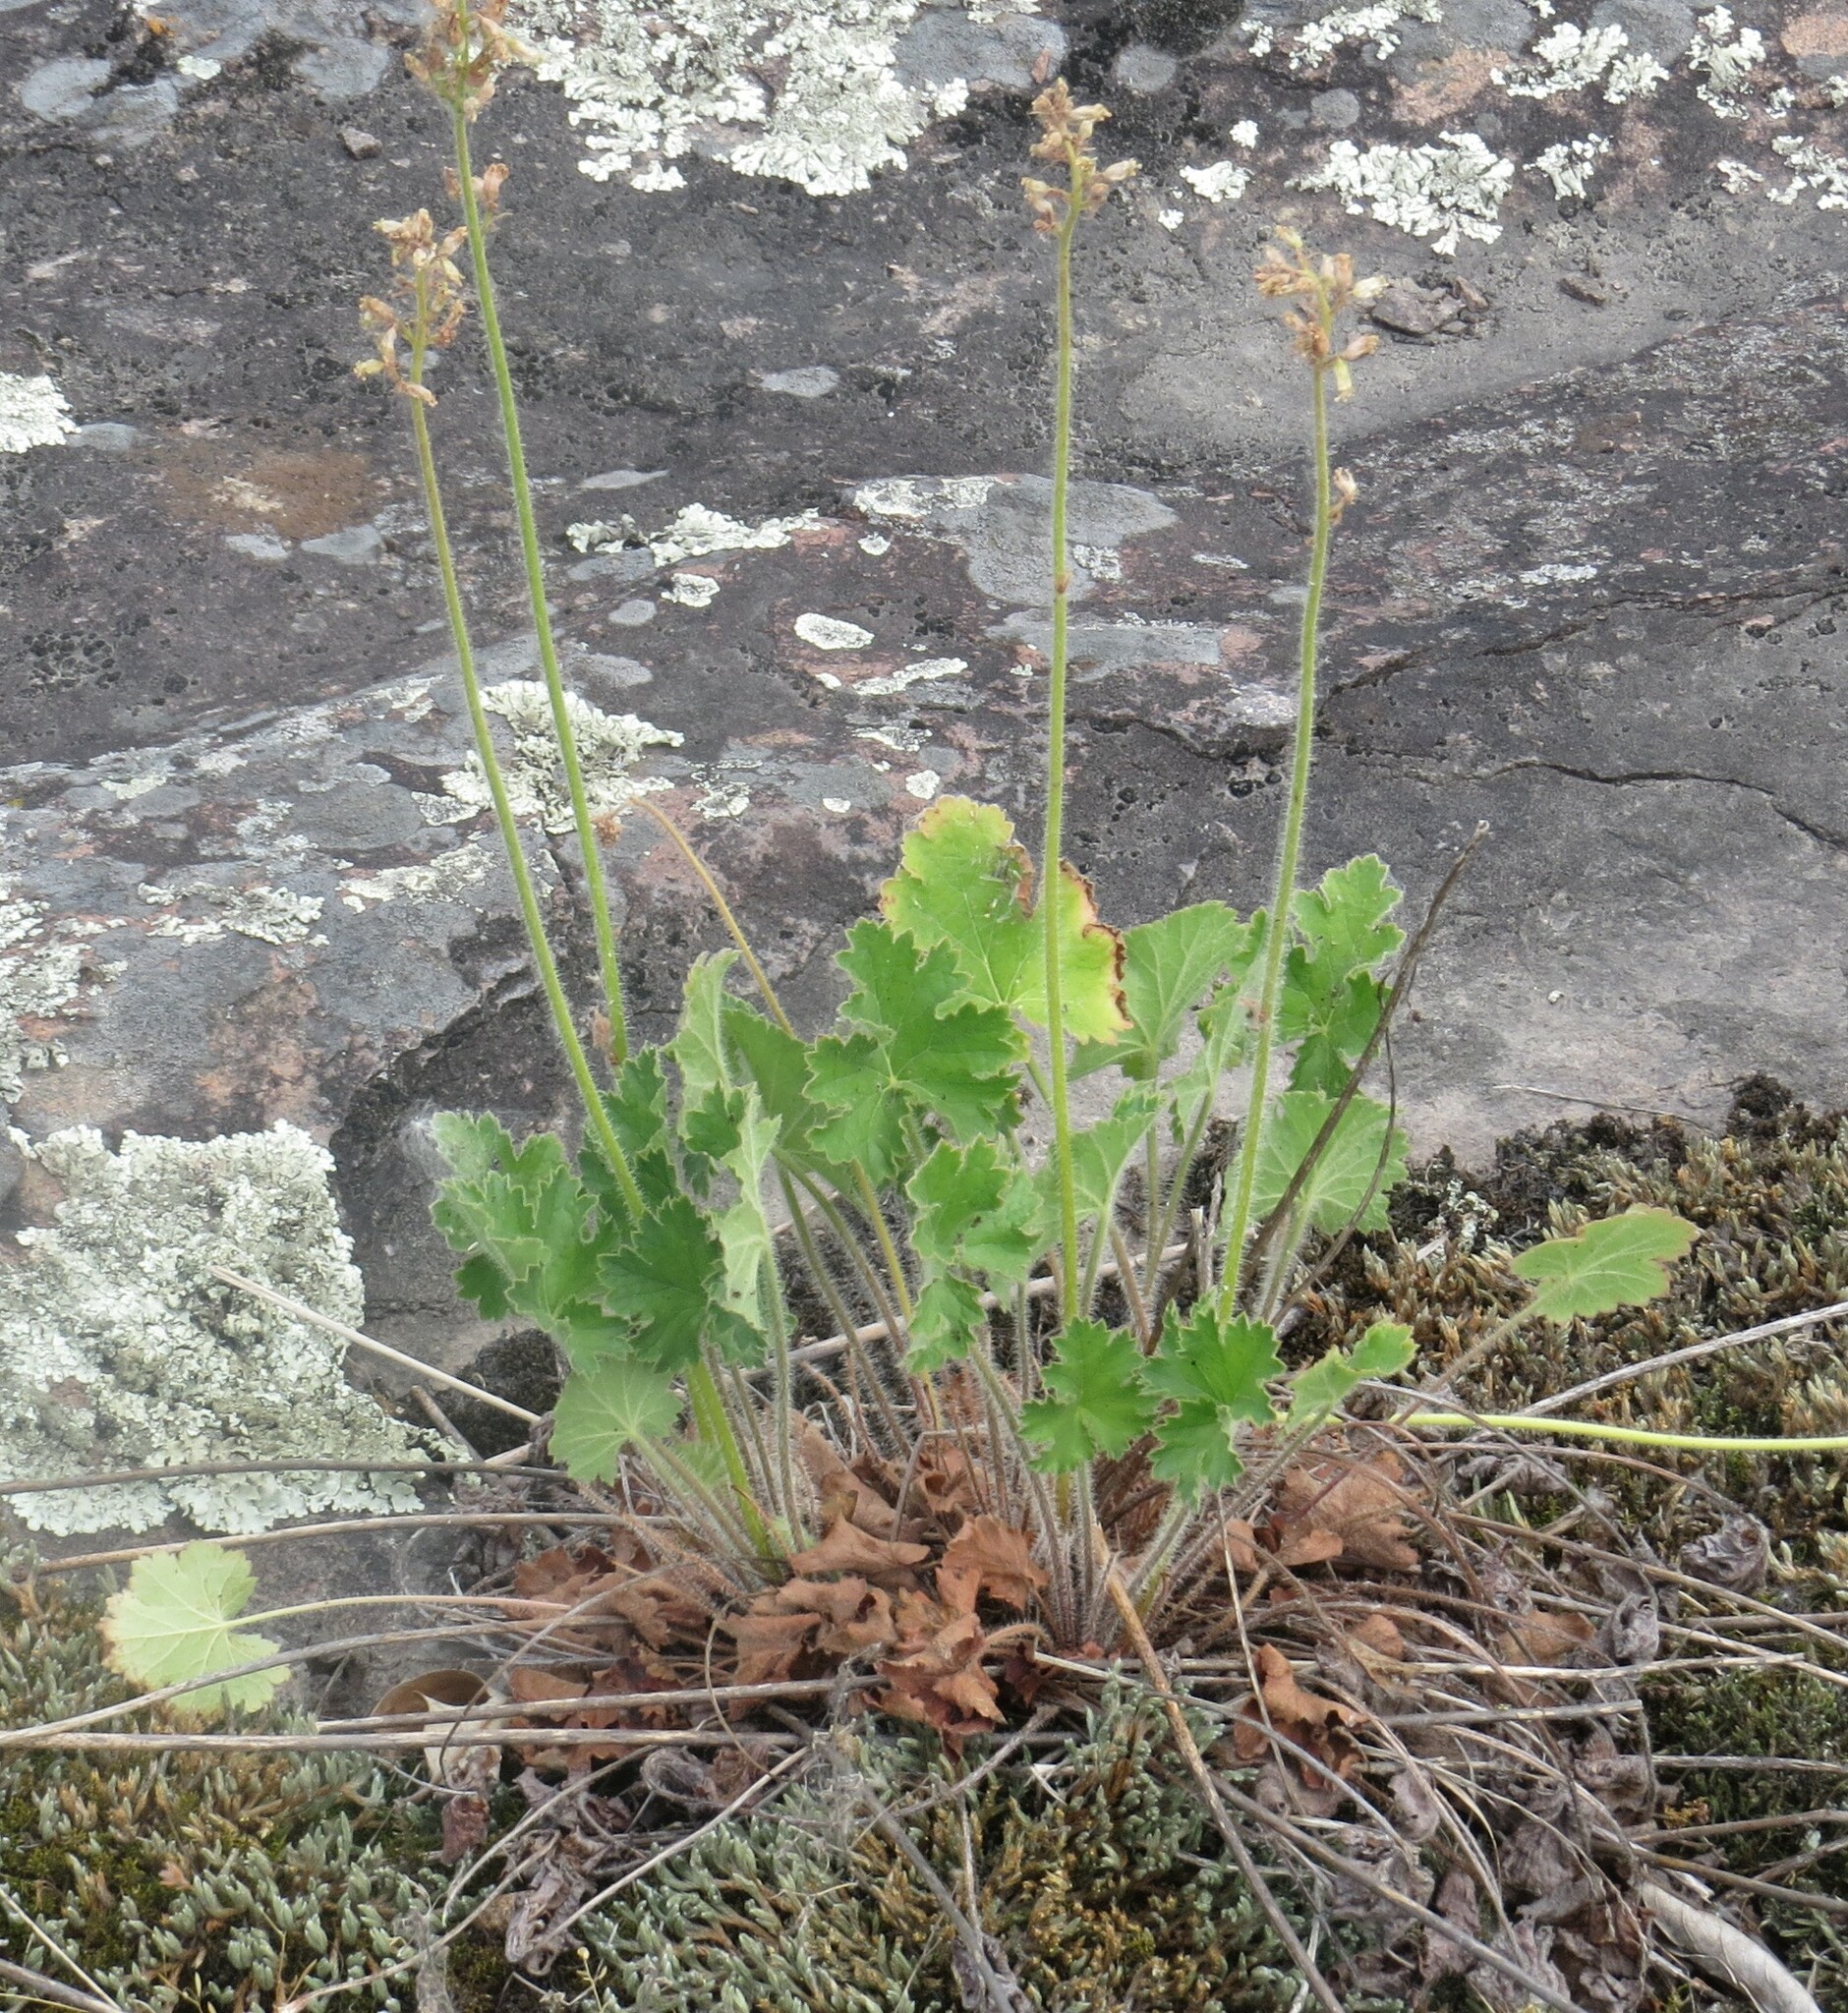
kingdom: Plantae
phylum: Tracheophyta
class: Magnoliopsida
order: Saxifragales
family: Saxifragaceae
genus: Heuchera
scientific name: Heuchera richardsonii
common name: Richardson's alumroot
